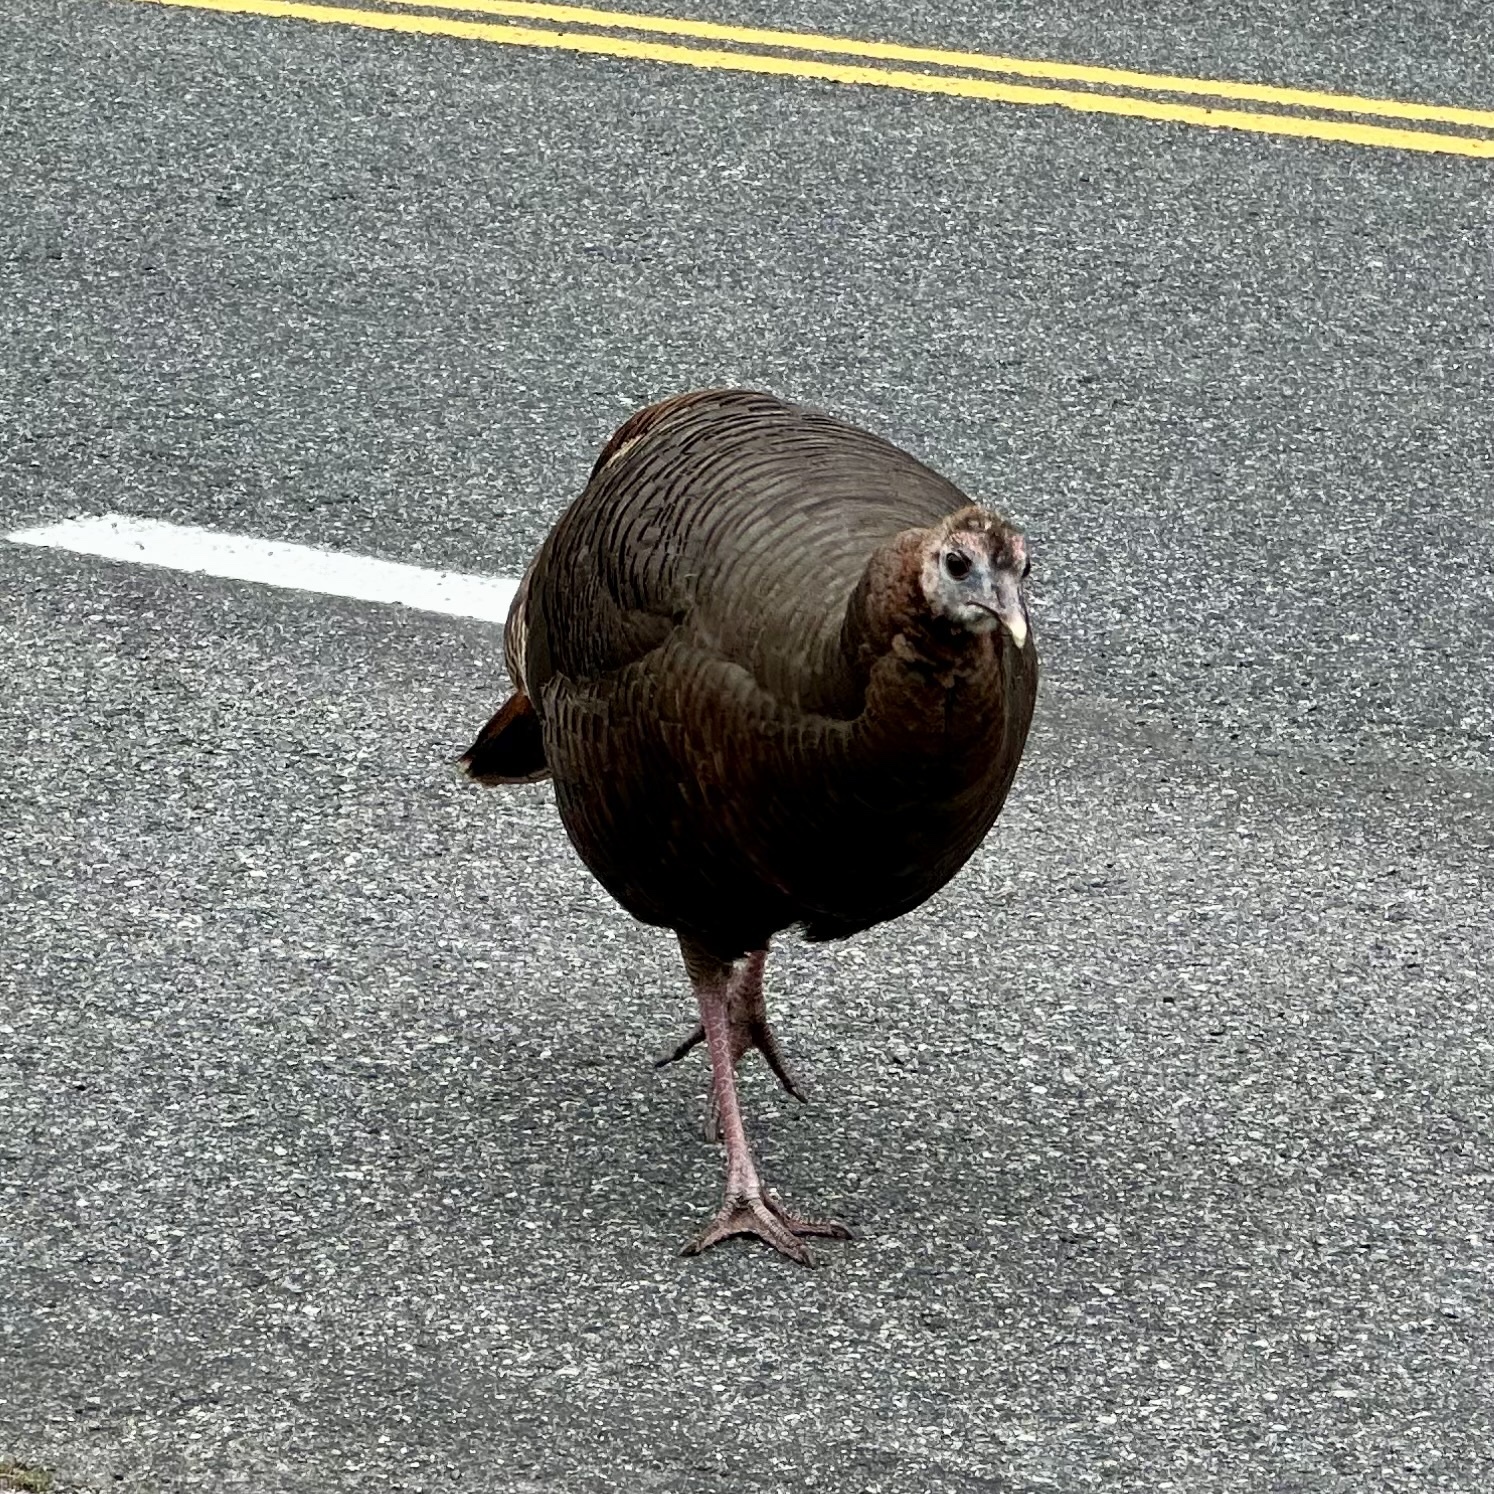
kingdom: Animalia
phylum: Chordata
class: Aves
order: Galliformes
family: Phasianidae
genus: Meleagris
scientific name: Meleagris gallopavo
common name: Wild turkey
